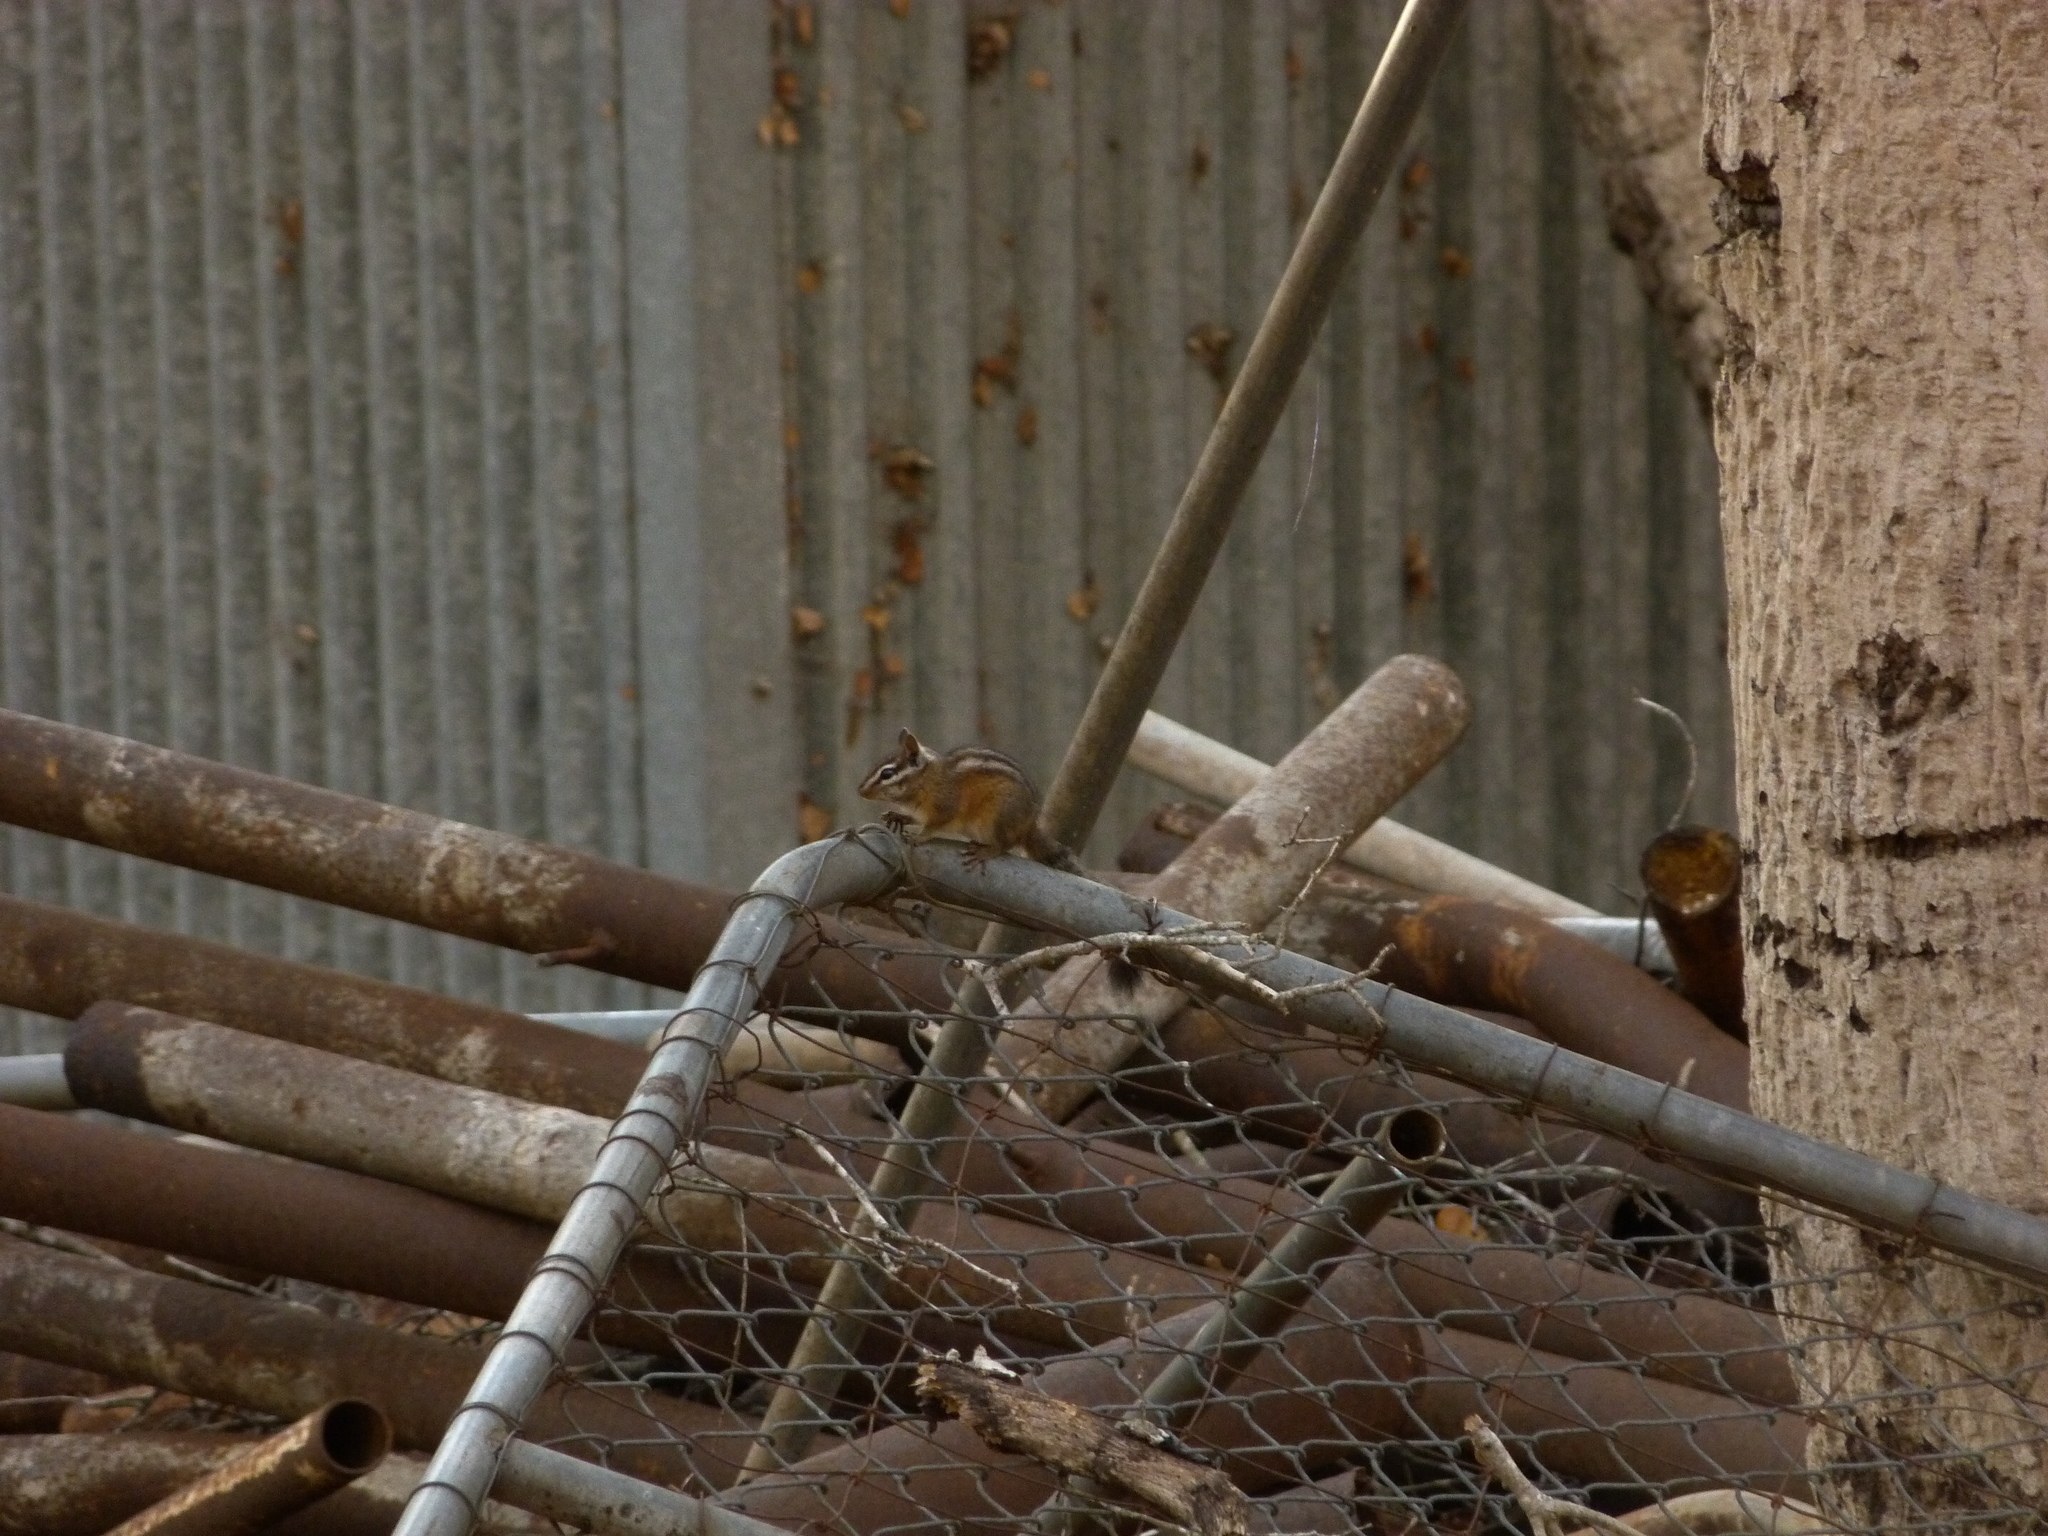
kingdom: Animalia
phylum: Chordata
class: Mammalia
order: Rodentia
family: Sciuridae
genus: Tamias
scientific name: Tamias merriami
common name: Merriam's chipmunk
